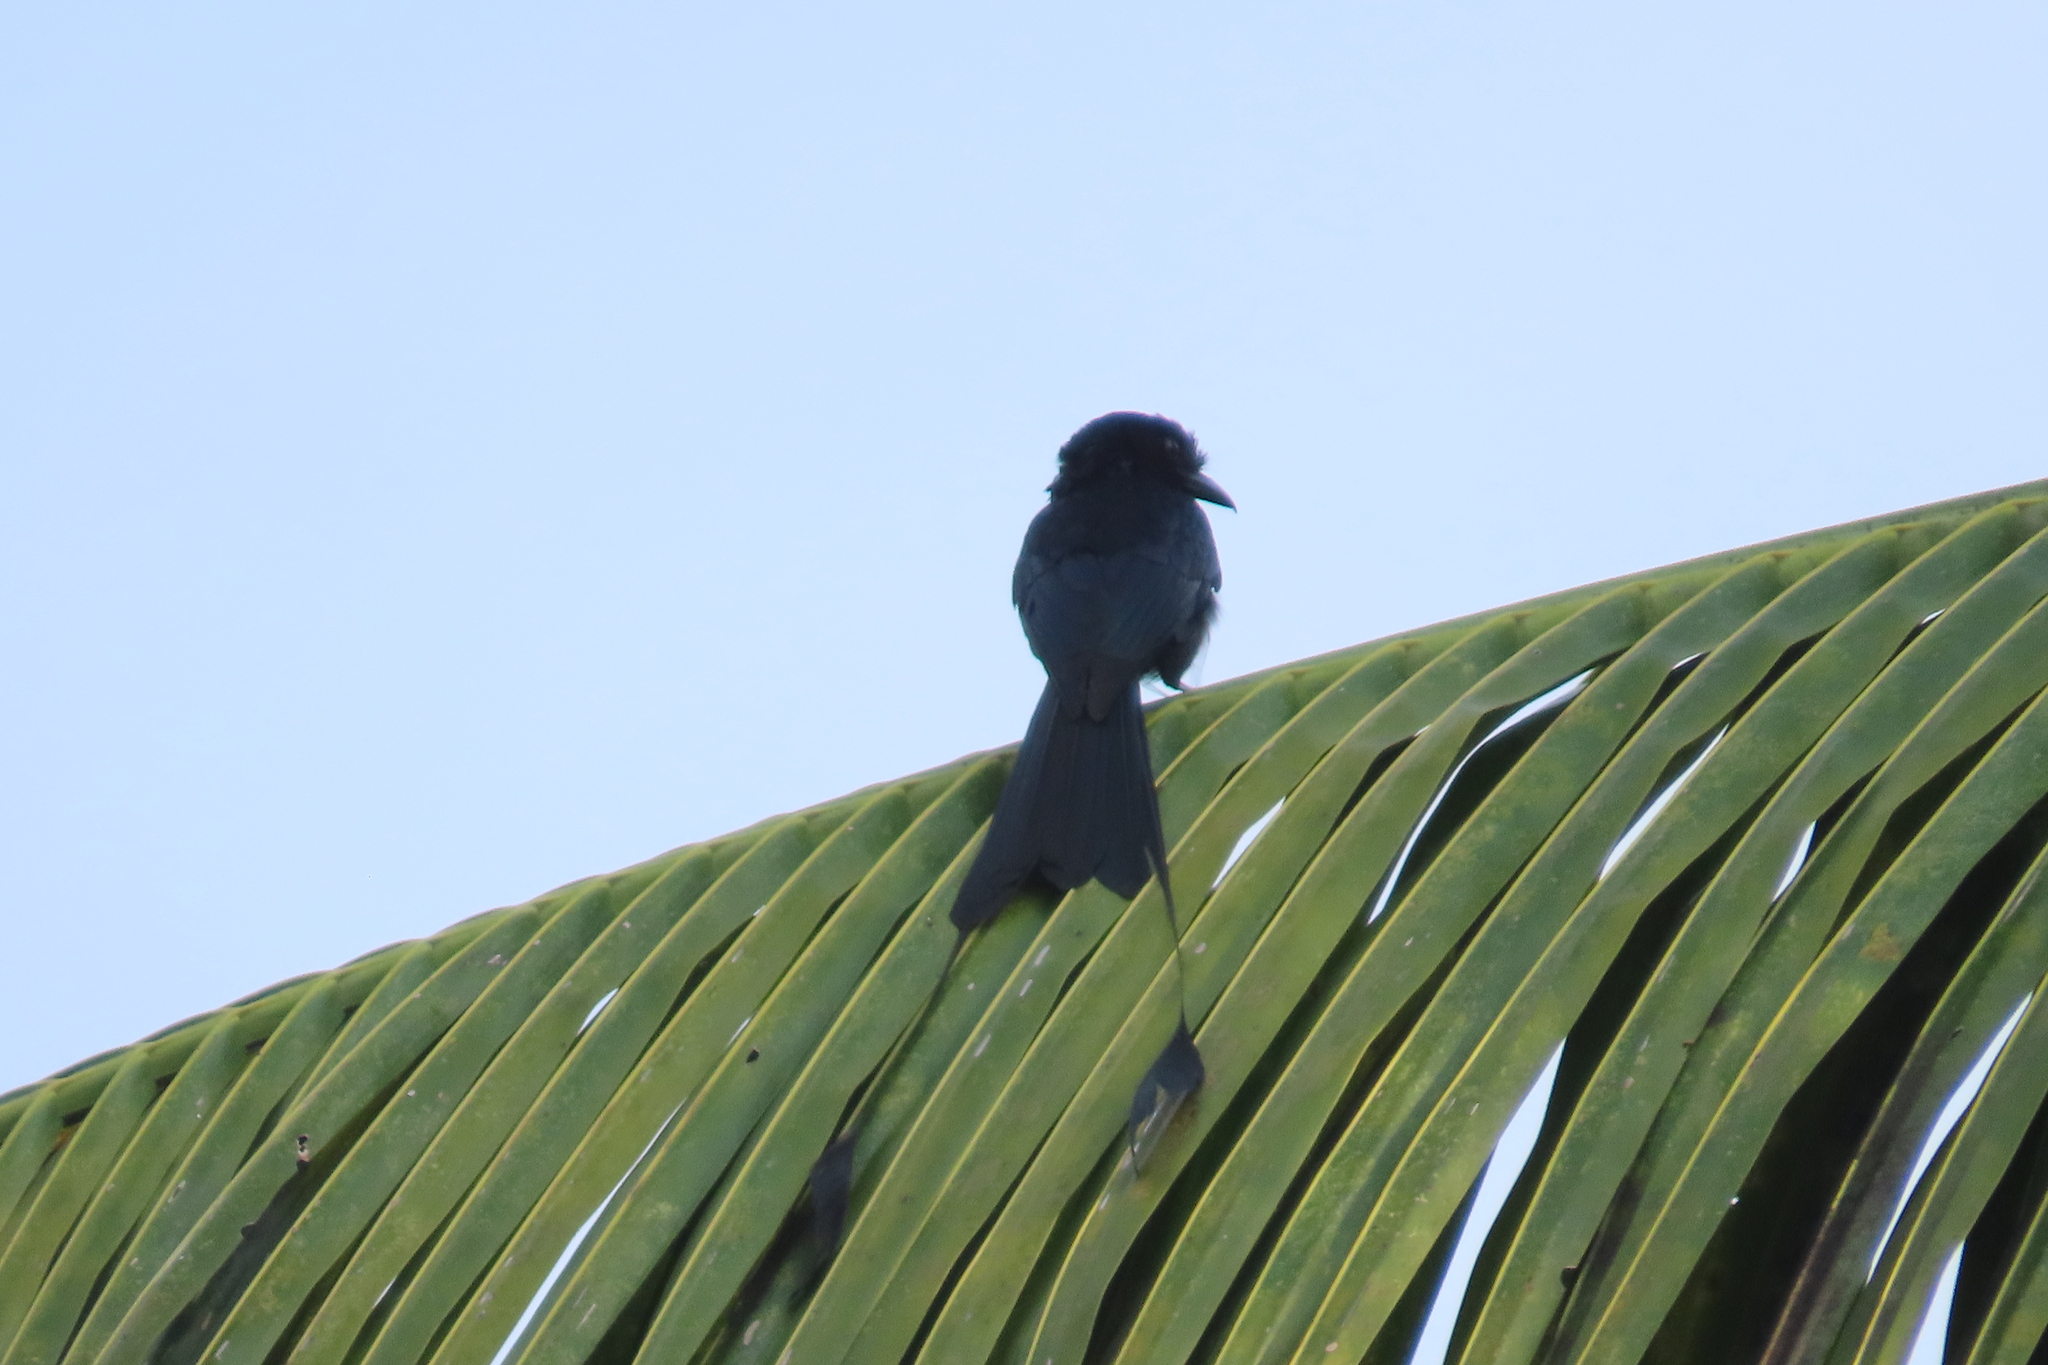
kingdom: Animalia
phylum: Chordata
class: Aves
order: Passeriformes
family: Dicruridae
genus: Dicrurus
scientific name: Dicrurus paradiseus
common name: Greater racket-tailed drongo
